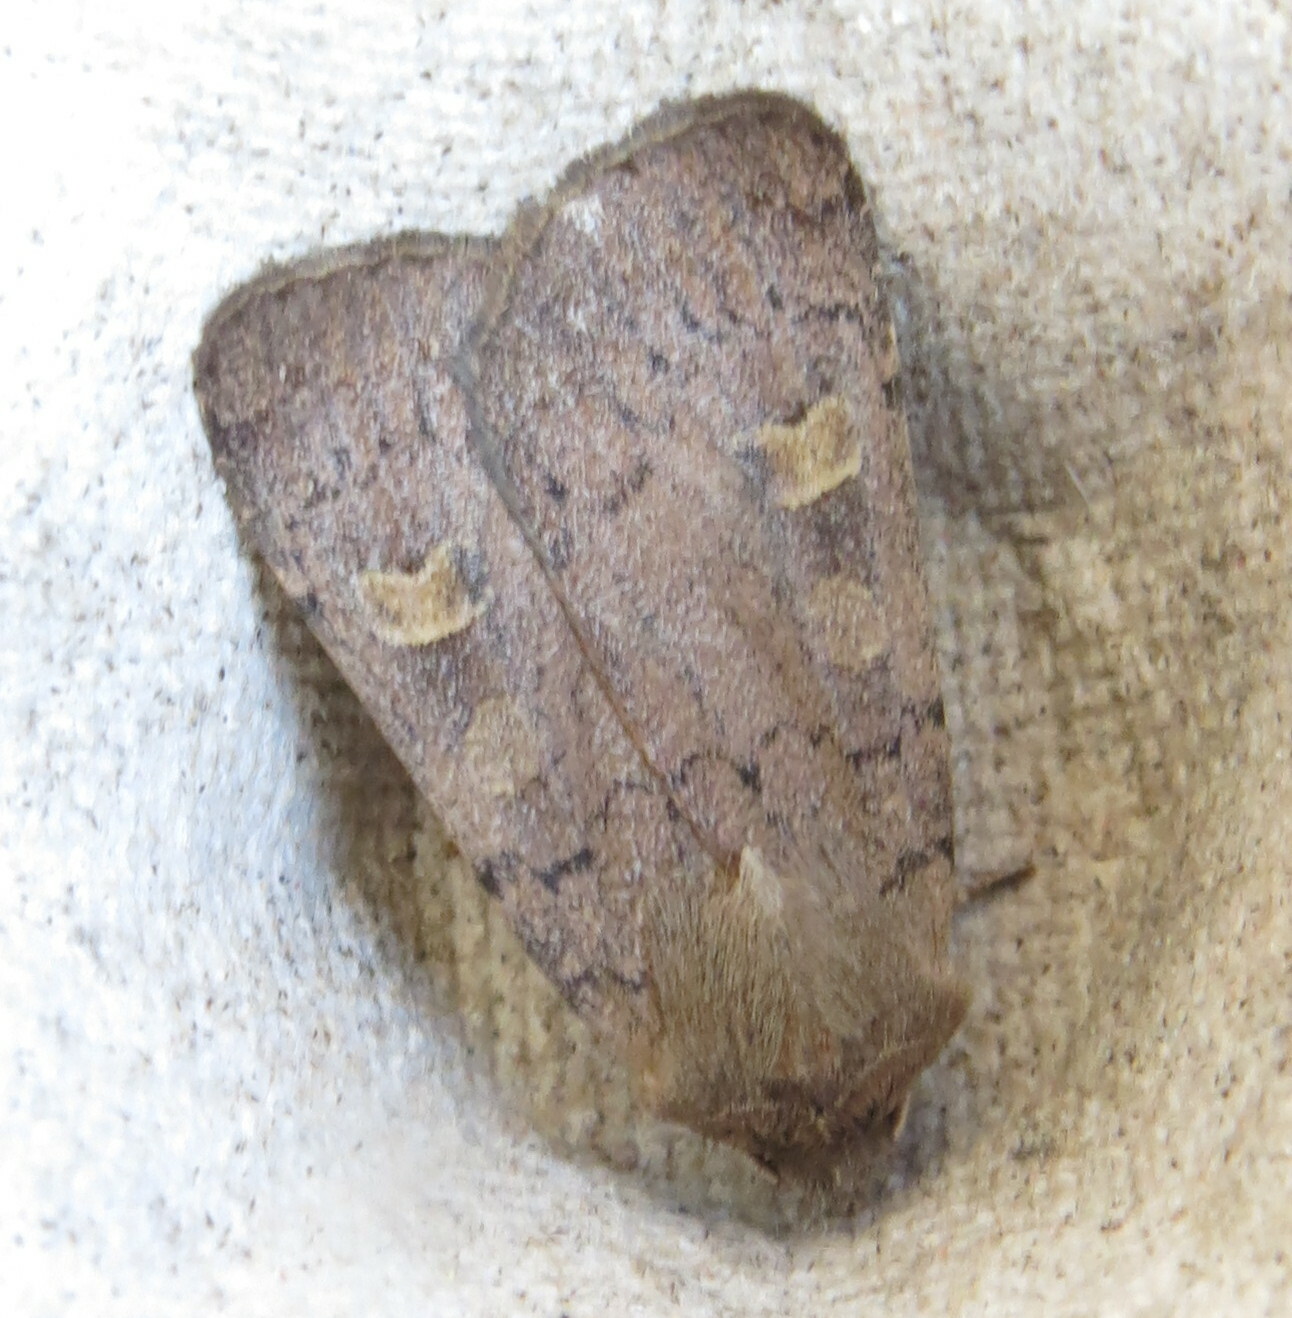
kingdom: Animalia
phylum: Arthropoda
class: Insecta
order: Lepidoptera
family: Noctuidae
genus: Xestia
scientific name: Xestia xanthographa
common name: Square-spot rustic
